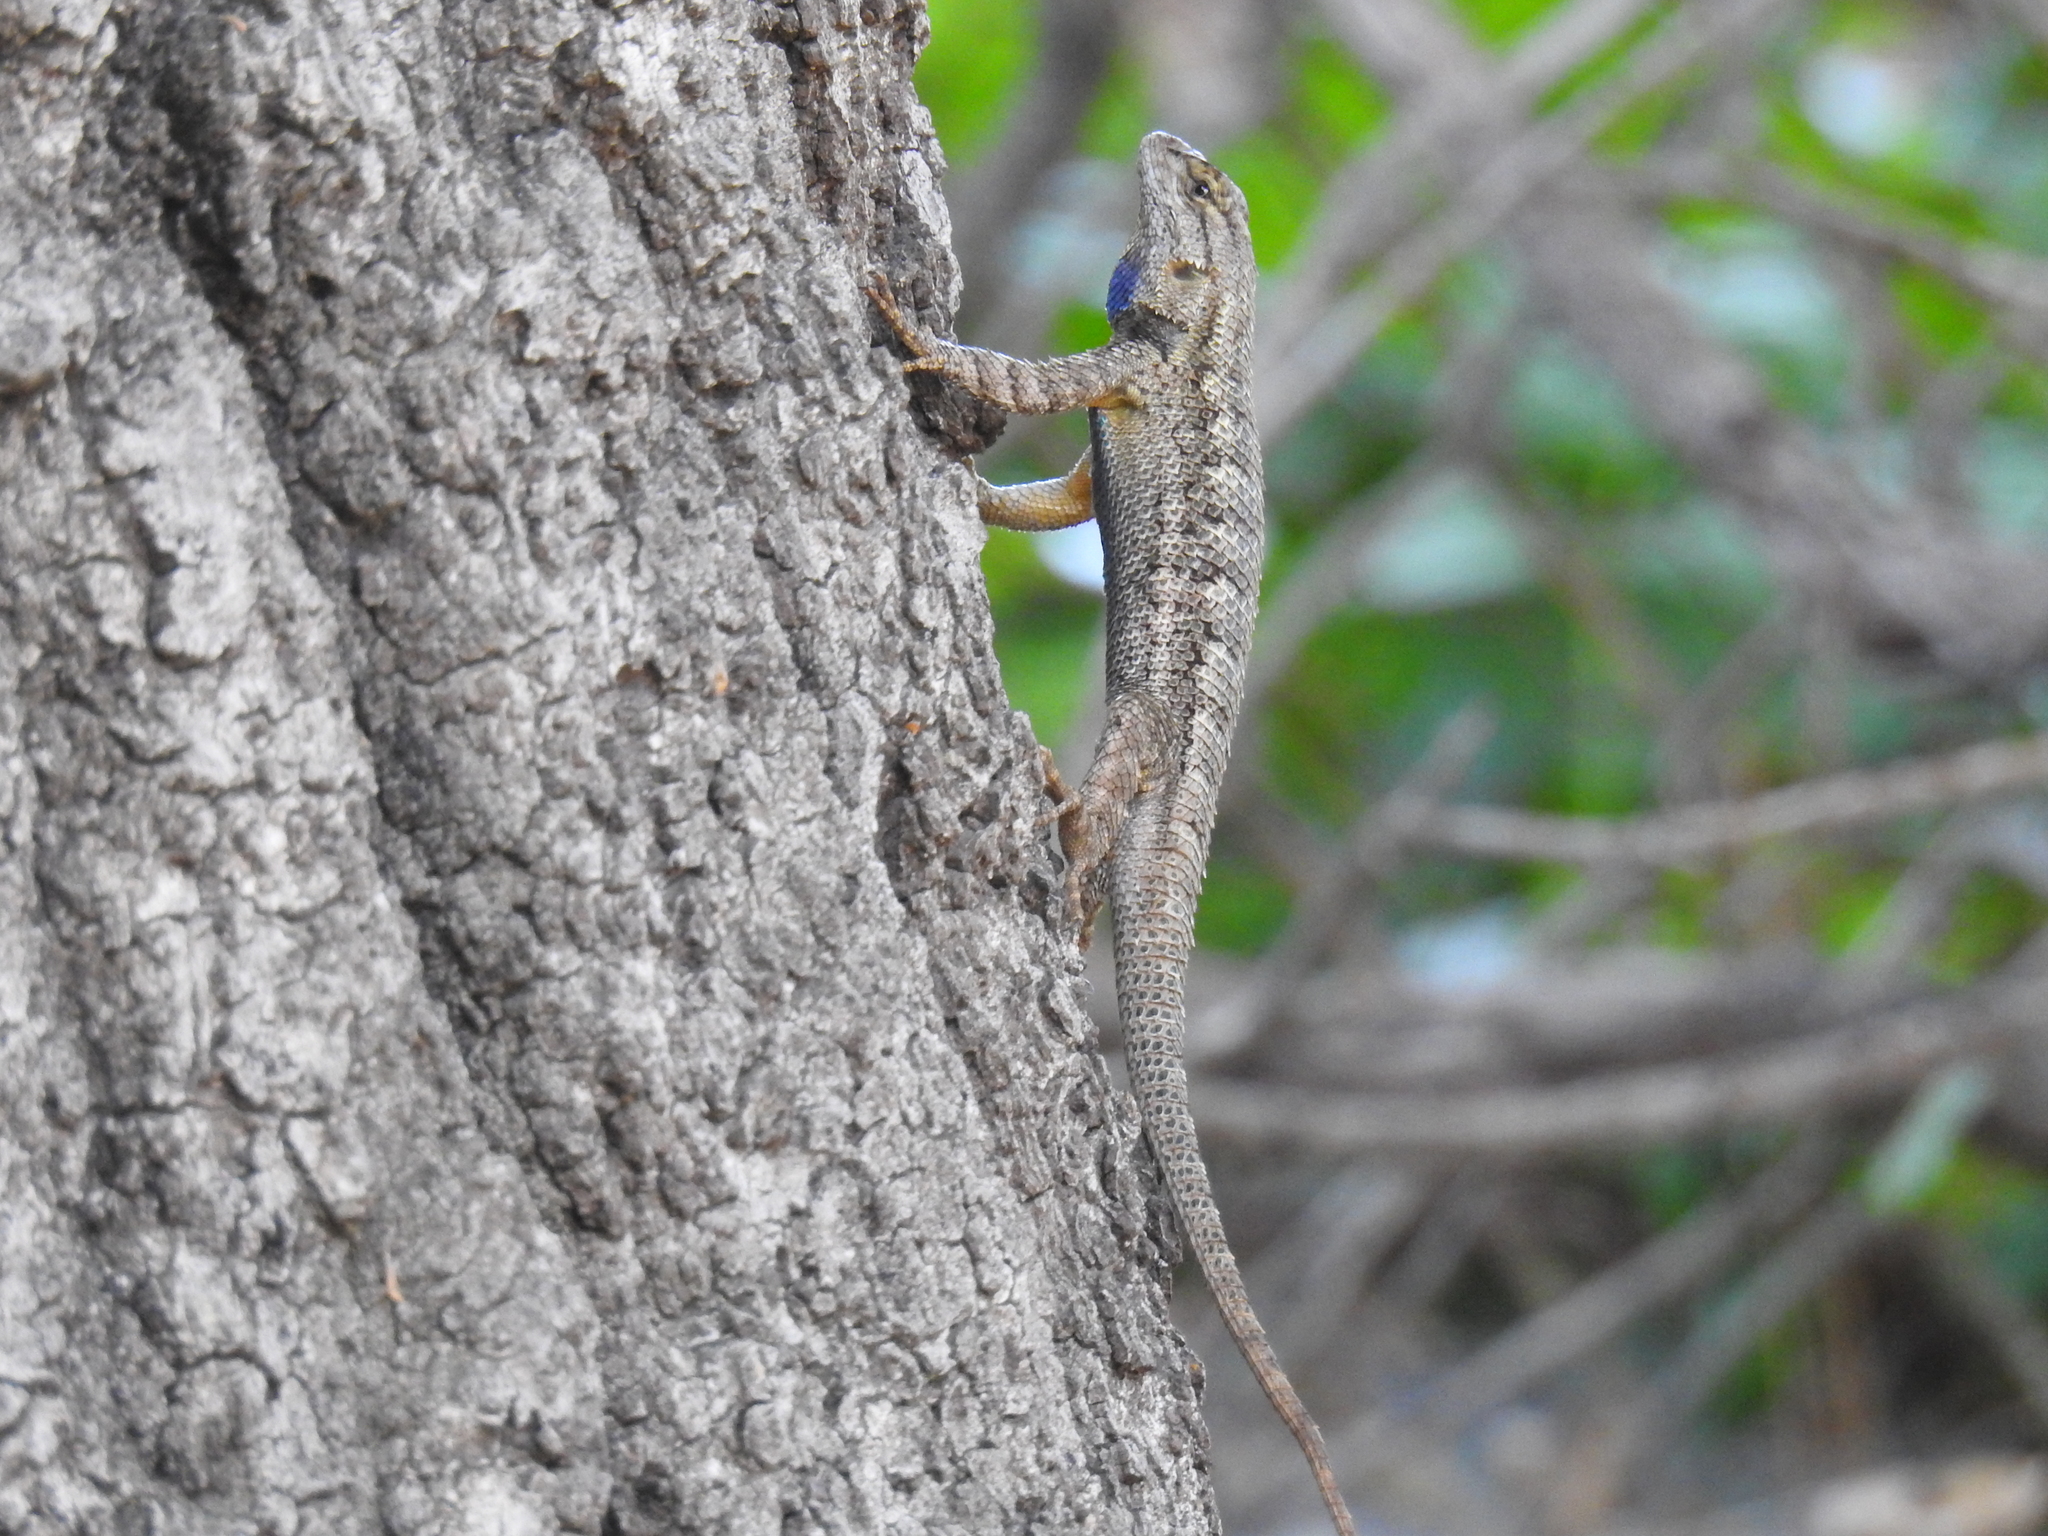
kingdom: Animalia
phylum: Chordata
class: Squamata
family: Phrynosomatidae
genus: Sceloporus
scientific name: Sceloporus occidentalis
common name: Western fence lizard
